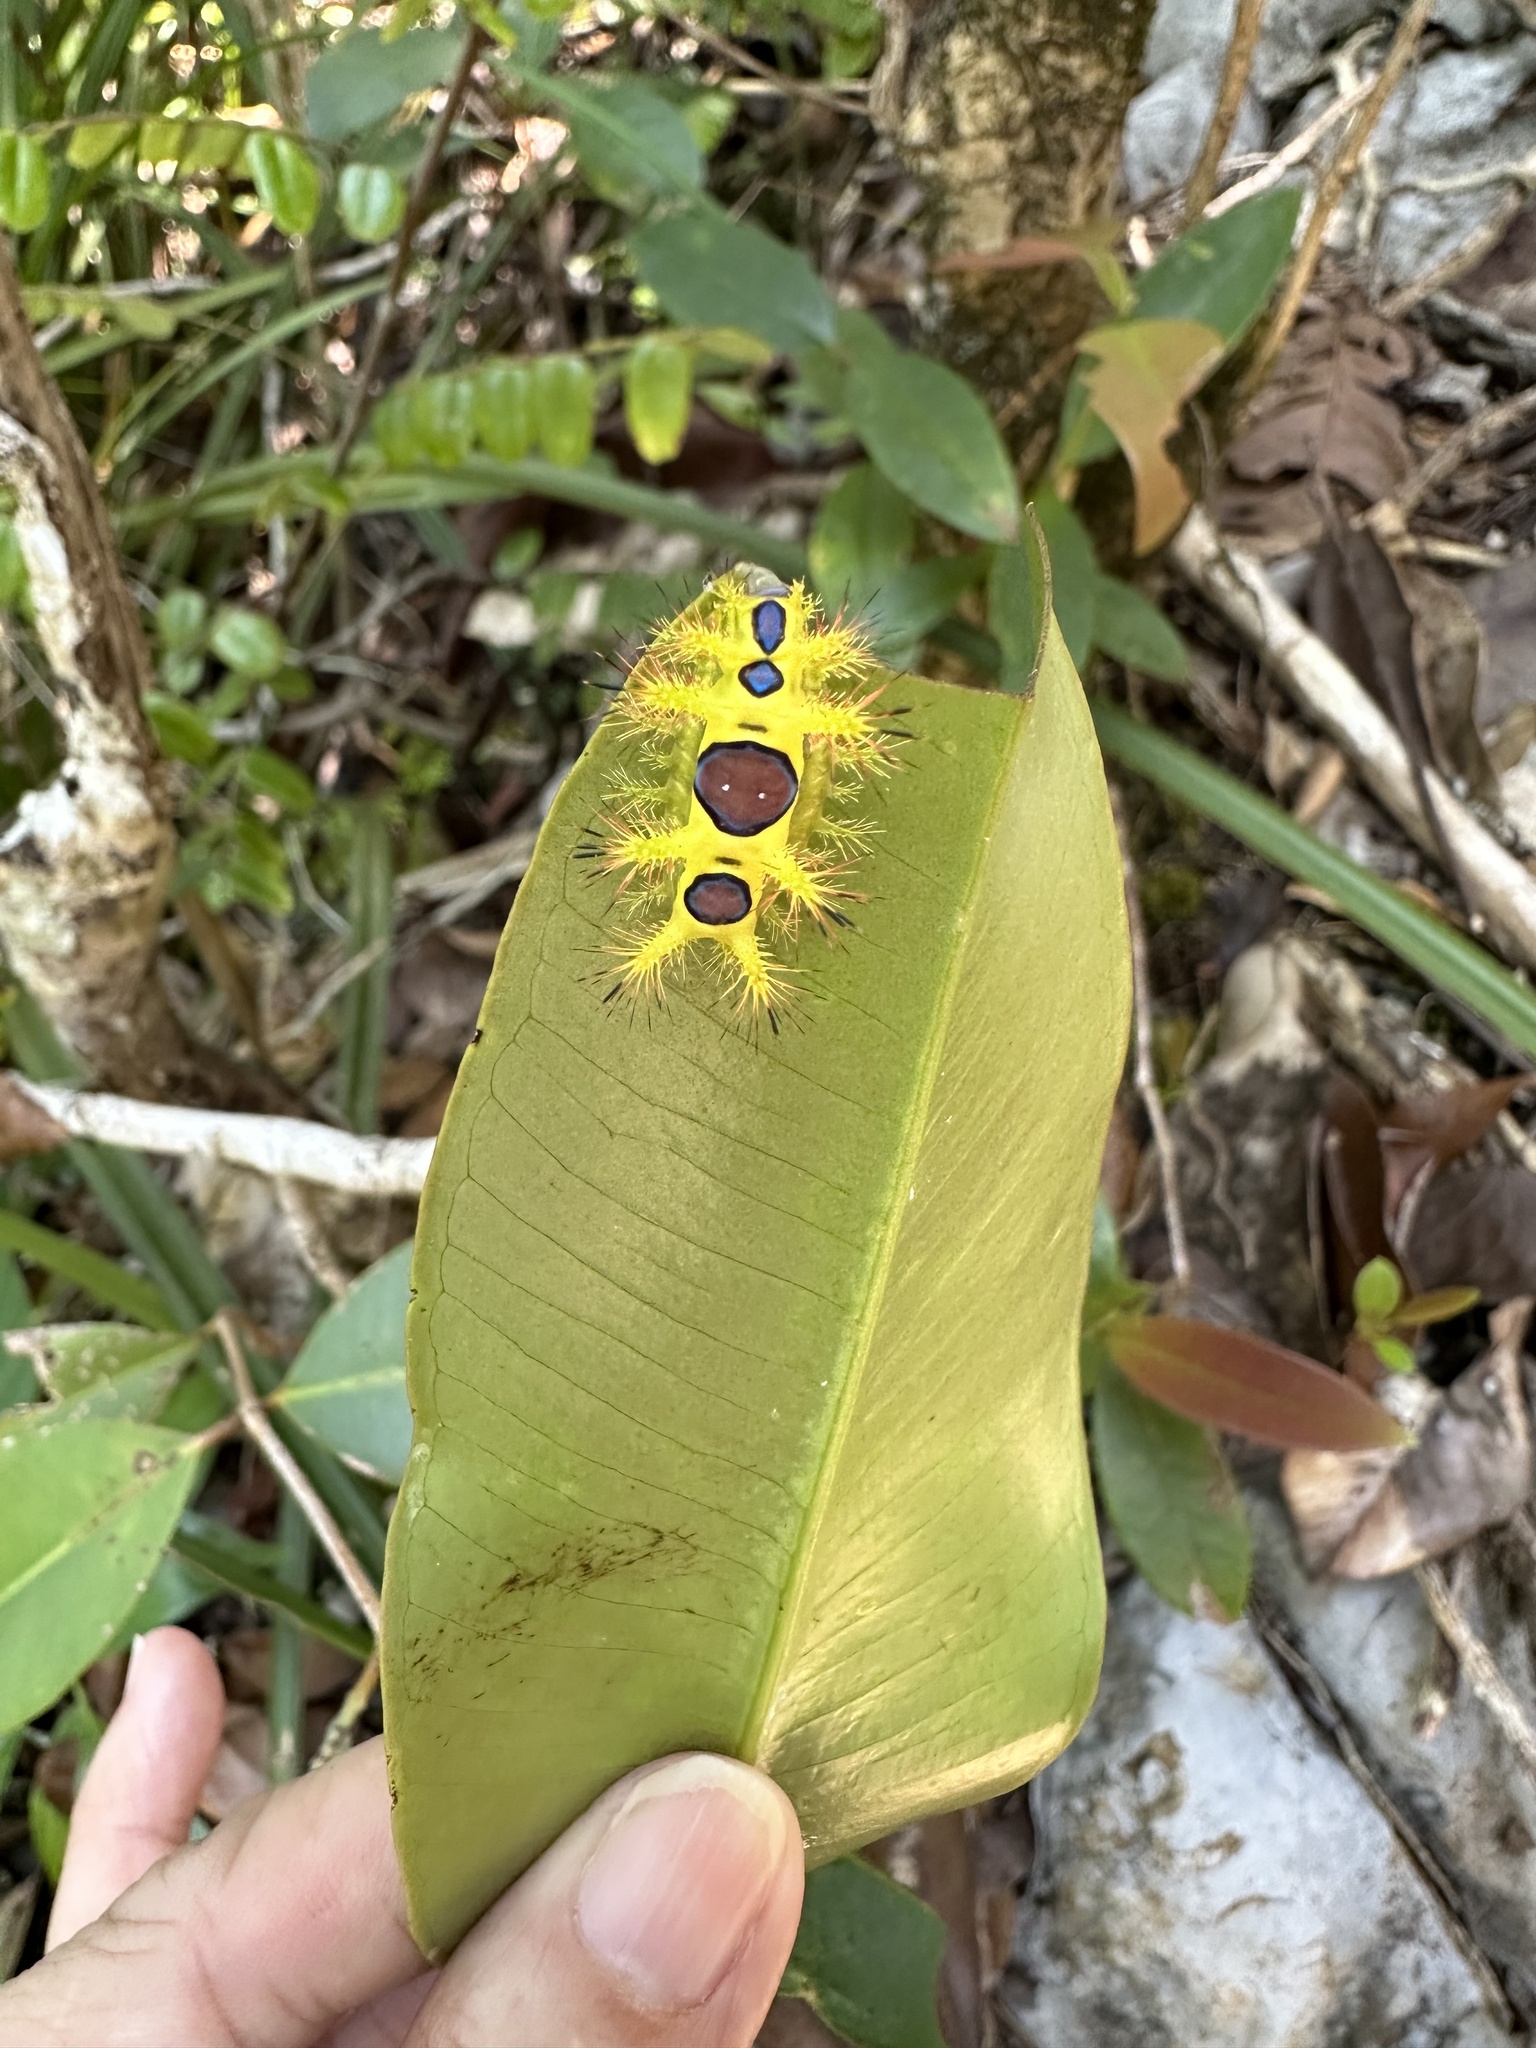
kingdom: Animalia
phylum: Arthropoda
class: Insecta
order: Lepidoptera
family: Limacodidae
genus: Setothosea
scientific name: Setothosea asigna
